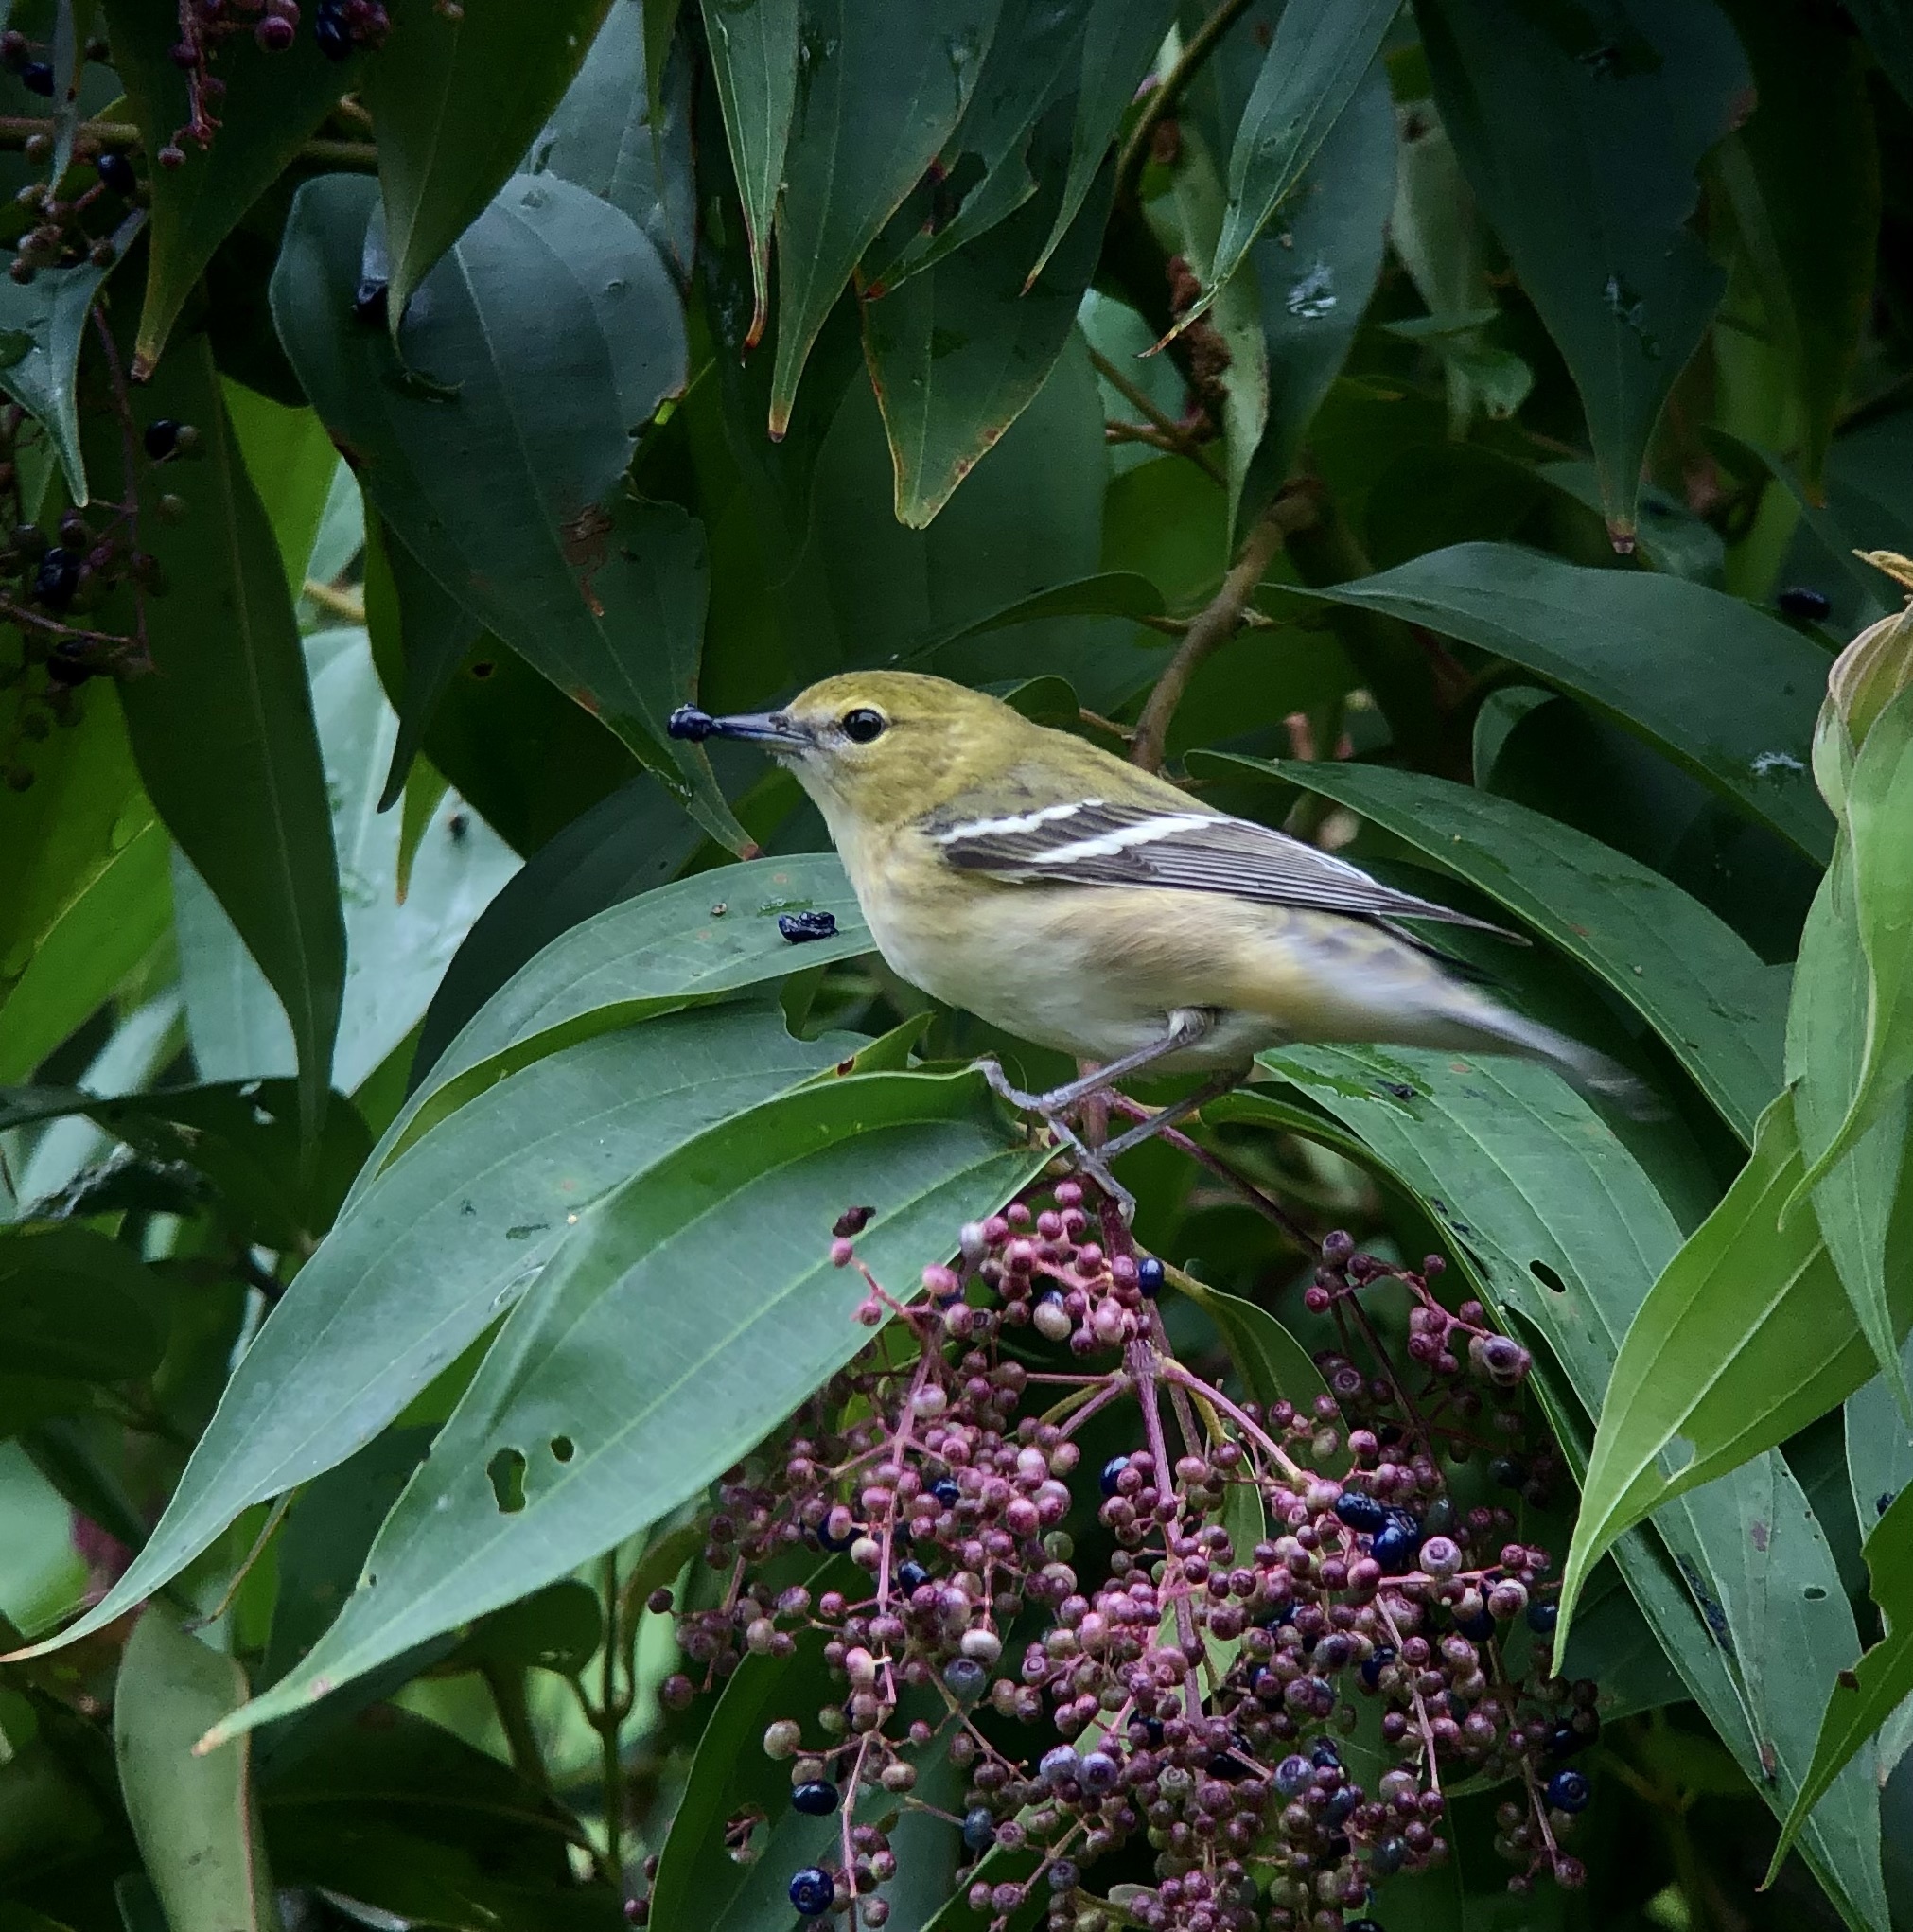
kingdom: Animalia
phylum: Chordata
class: Aves
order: Passeriformes
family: Parulidae
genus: Setophaga
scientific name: Setophaga castanea
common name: Bay-breasted warbler
